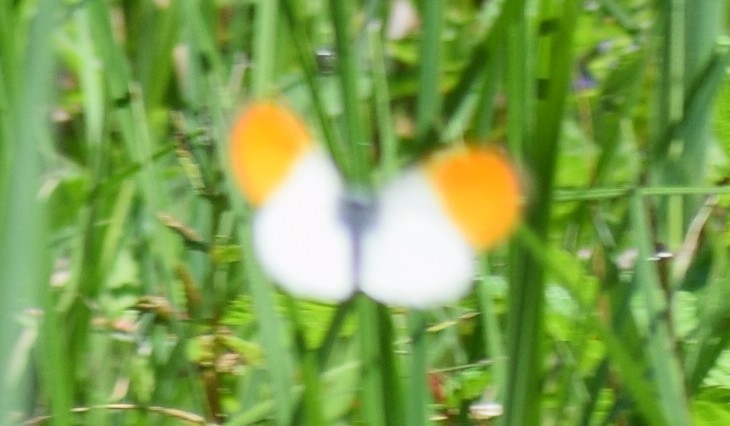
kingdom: Animalia
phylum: Arthropoda
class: Insecta
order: Lepidoptera
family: Pieridae
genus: Anthocharis
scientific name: Anthocharis cardamines
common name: Orange-tip
